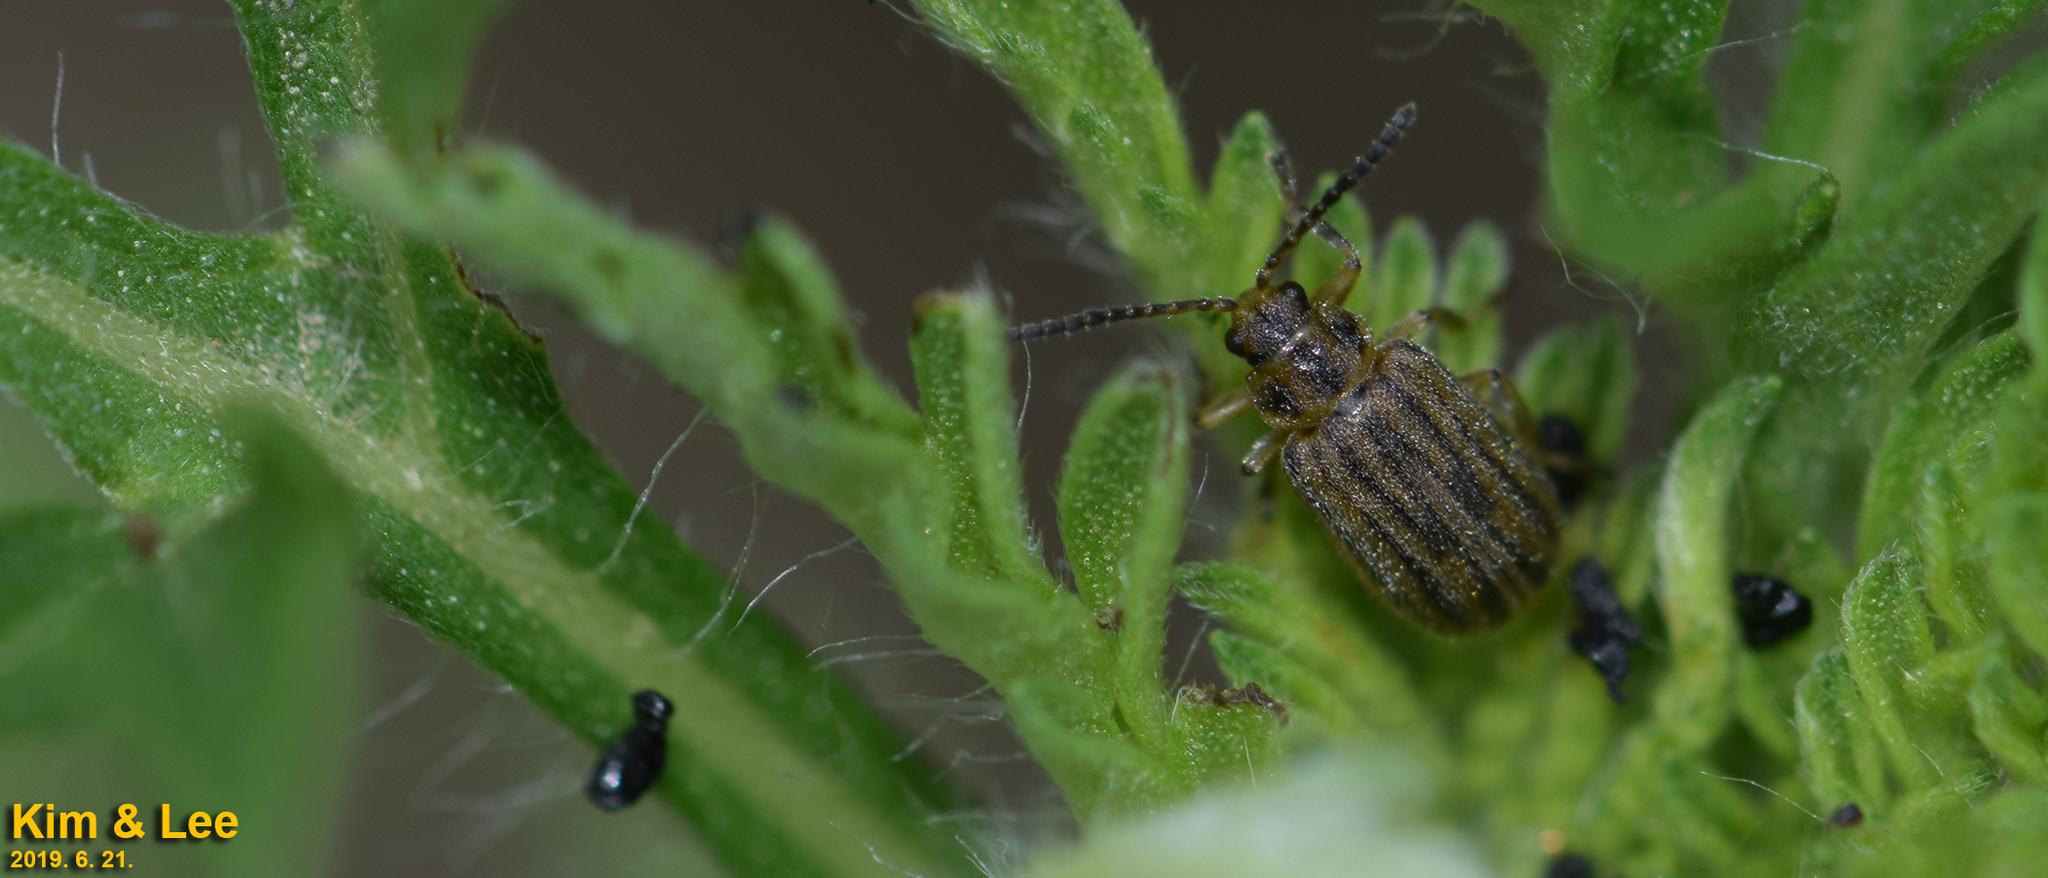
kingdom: Animalia
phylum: Arthropoda
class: Insecta
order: Coleoptera
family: Chrysomelidae
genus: Ophraella
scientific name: Ophraella communa
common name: Ragweed leaf beetle
